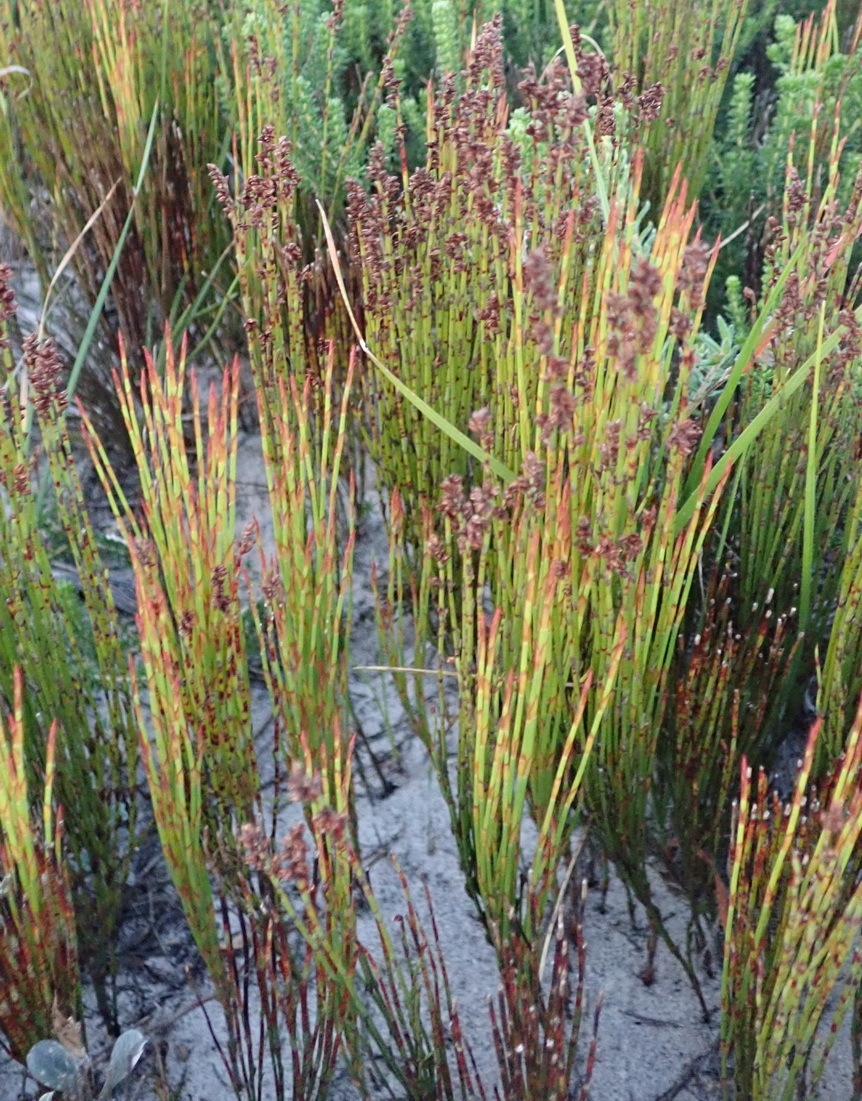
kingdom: Plantae
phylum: Tracheophyta
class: Liliopsida
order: Poales
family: Restionaceae
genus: Elegia
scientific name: Elegia microcarpa
